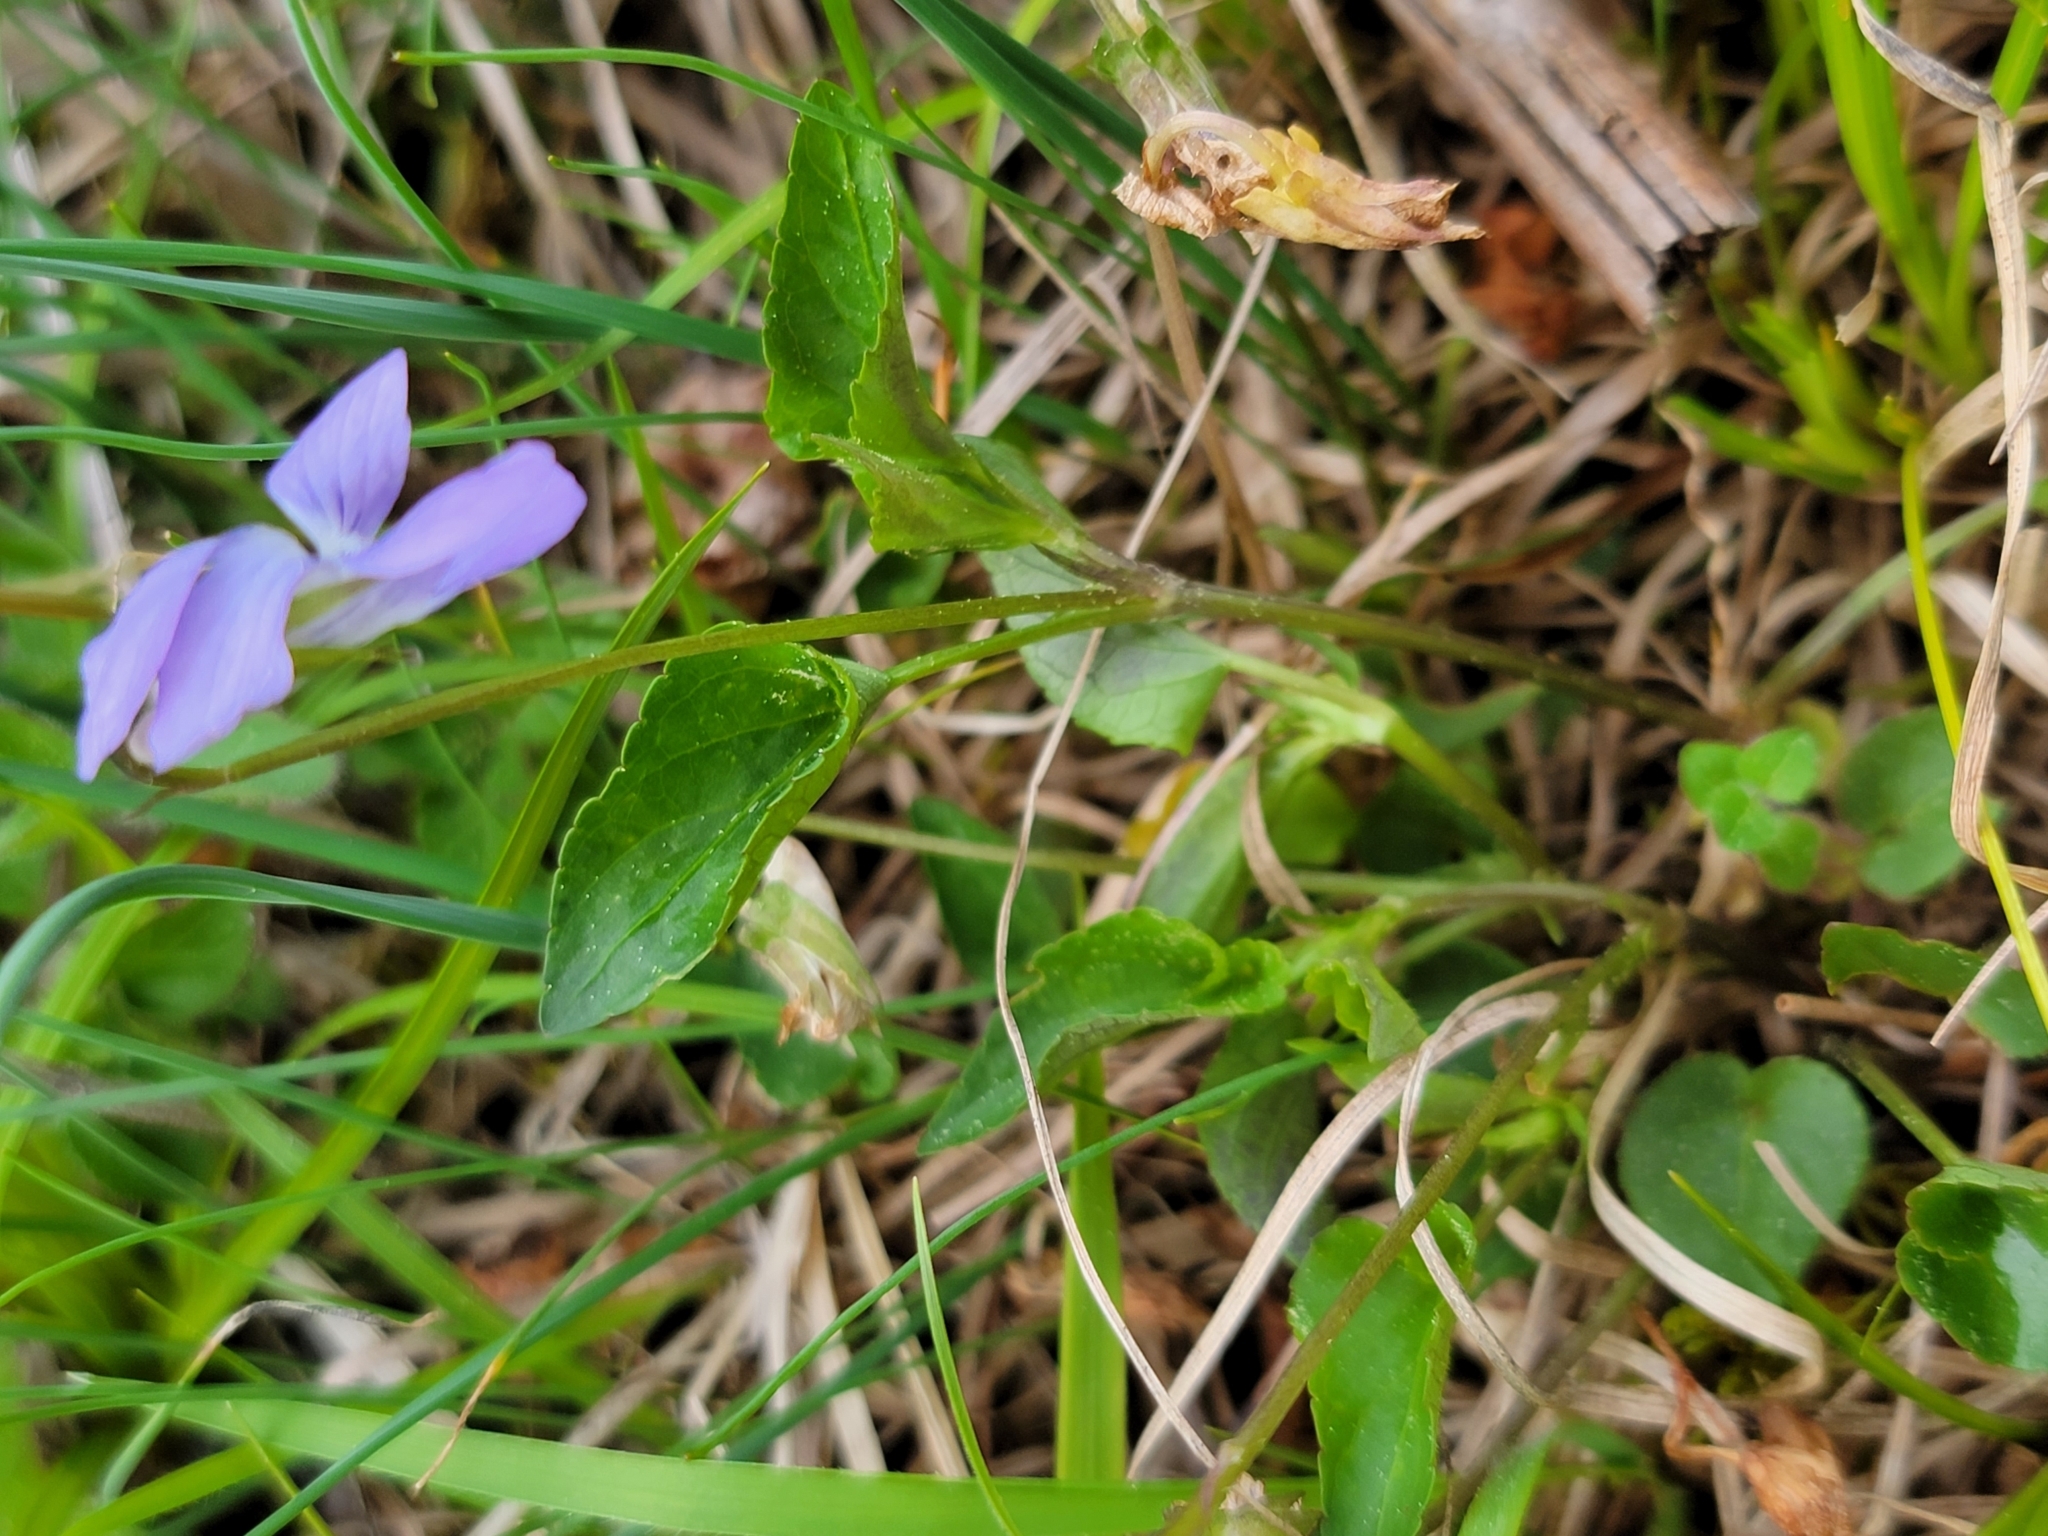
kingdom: Plantae
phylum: Tracheophyta
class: Magnoliopsida
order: Malpighiales
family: Violaceae
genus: Viola
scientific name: Viola riviniana
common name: Common dog-violet
